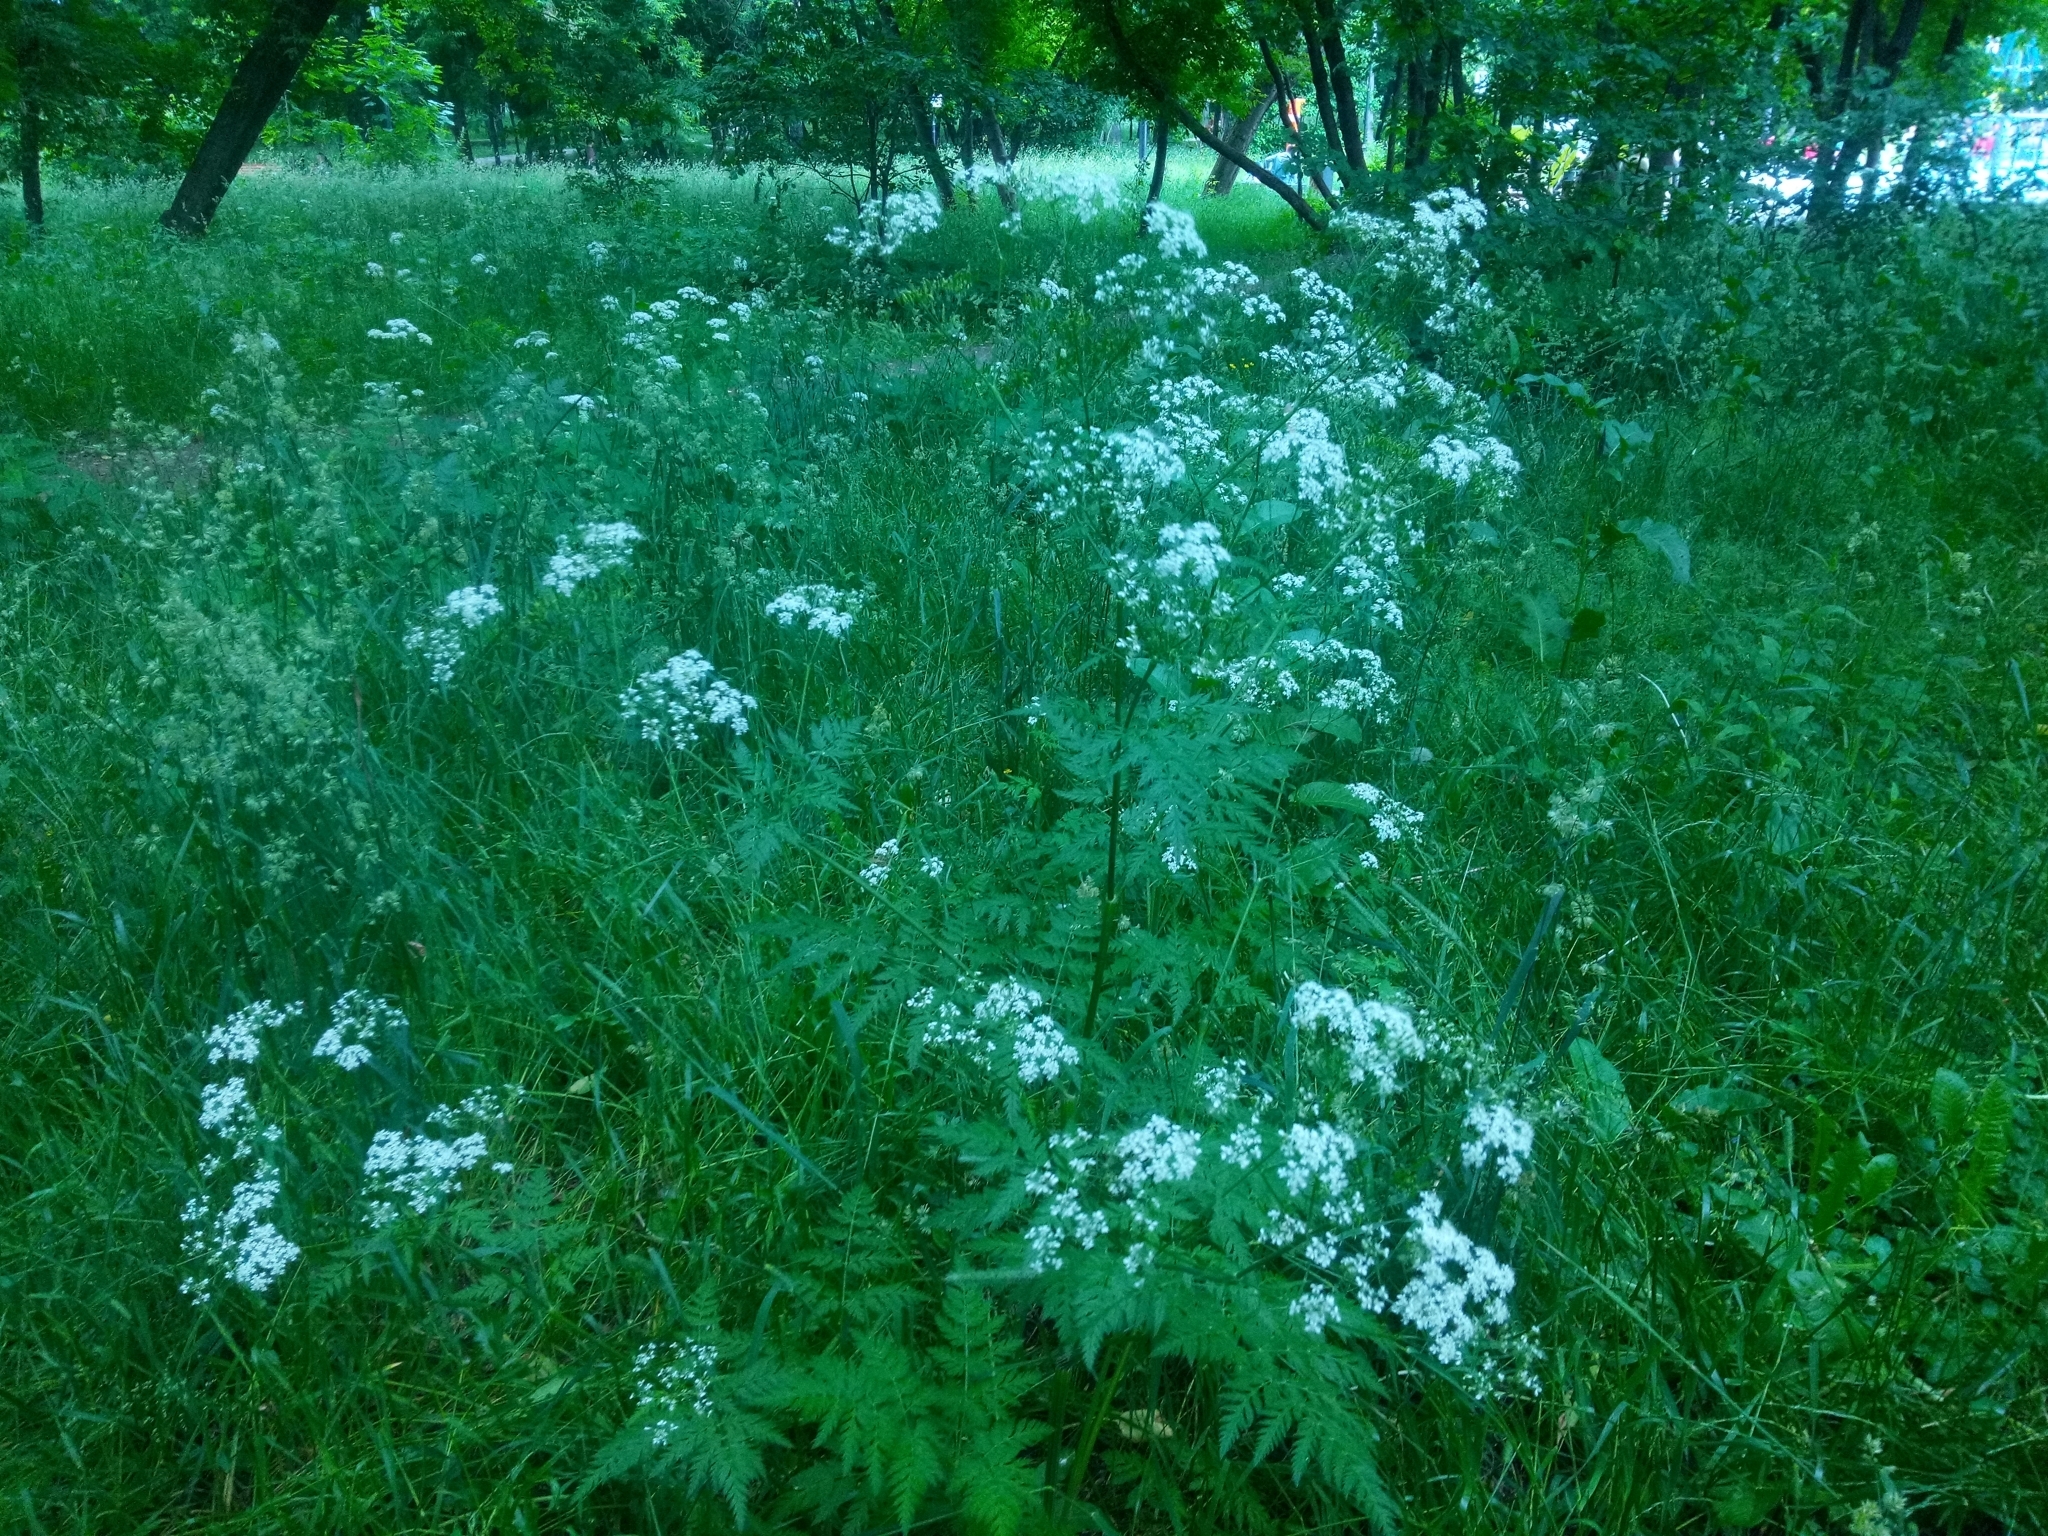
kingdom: Plantae
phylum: Tracheophyta
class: Magnoliopsida
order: Apiales
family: Apiaceae
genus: Anthriscus
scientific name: Anthriscus sylvestris
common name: Cow parsley
